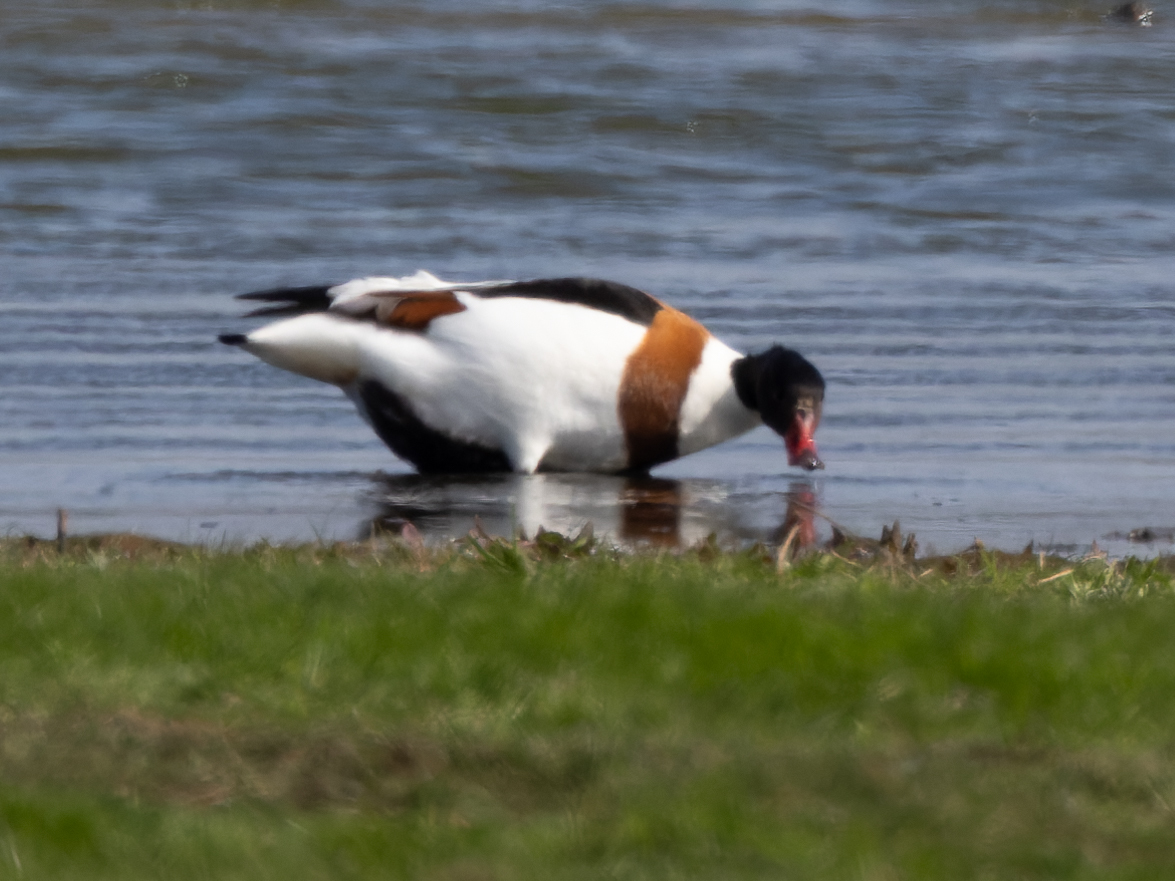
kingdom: Animalia
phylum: Chordata
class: Aves
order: Anseriformes
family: Anatidae
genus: Tadorna
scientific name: Tadorna tadorna
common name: Common shelduck
